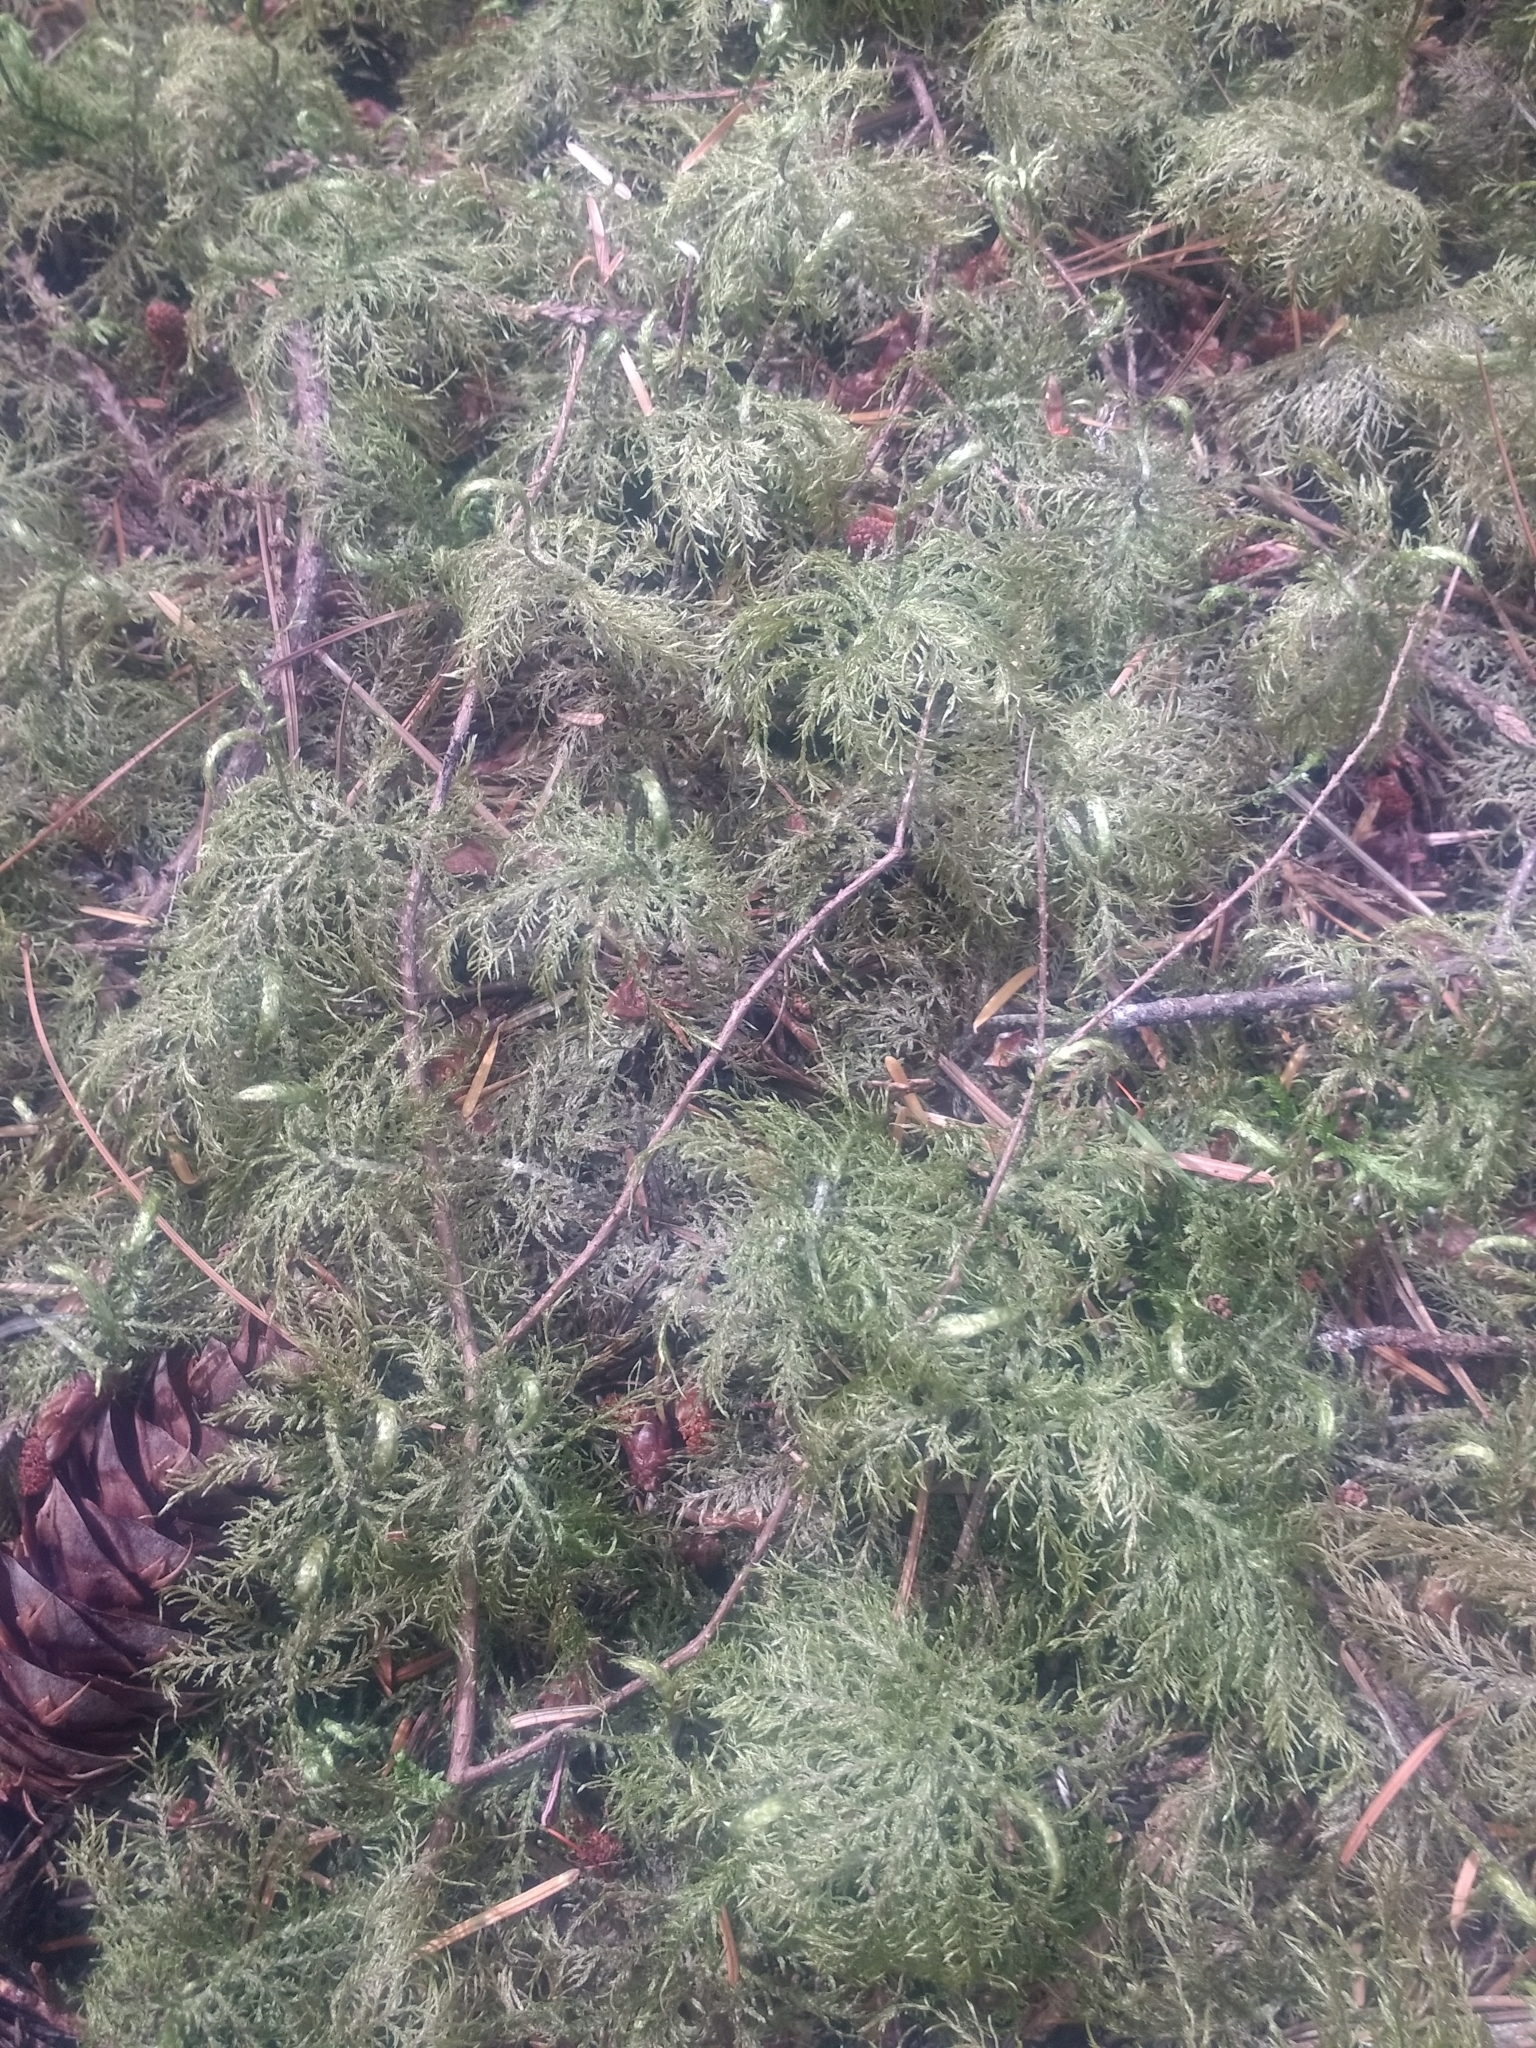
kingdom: Plantae
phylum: Bryophyta
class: Bryopsida
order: Hypnales
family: Hylocomiaceae
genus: Hylocomium
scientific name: Hylocomium splendens
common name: Stairstep moss
